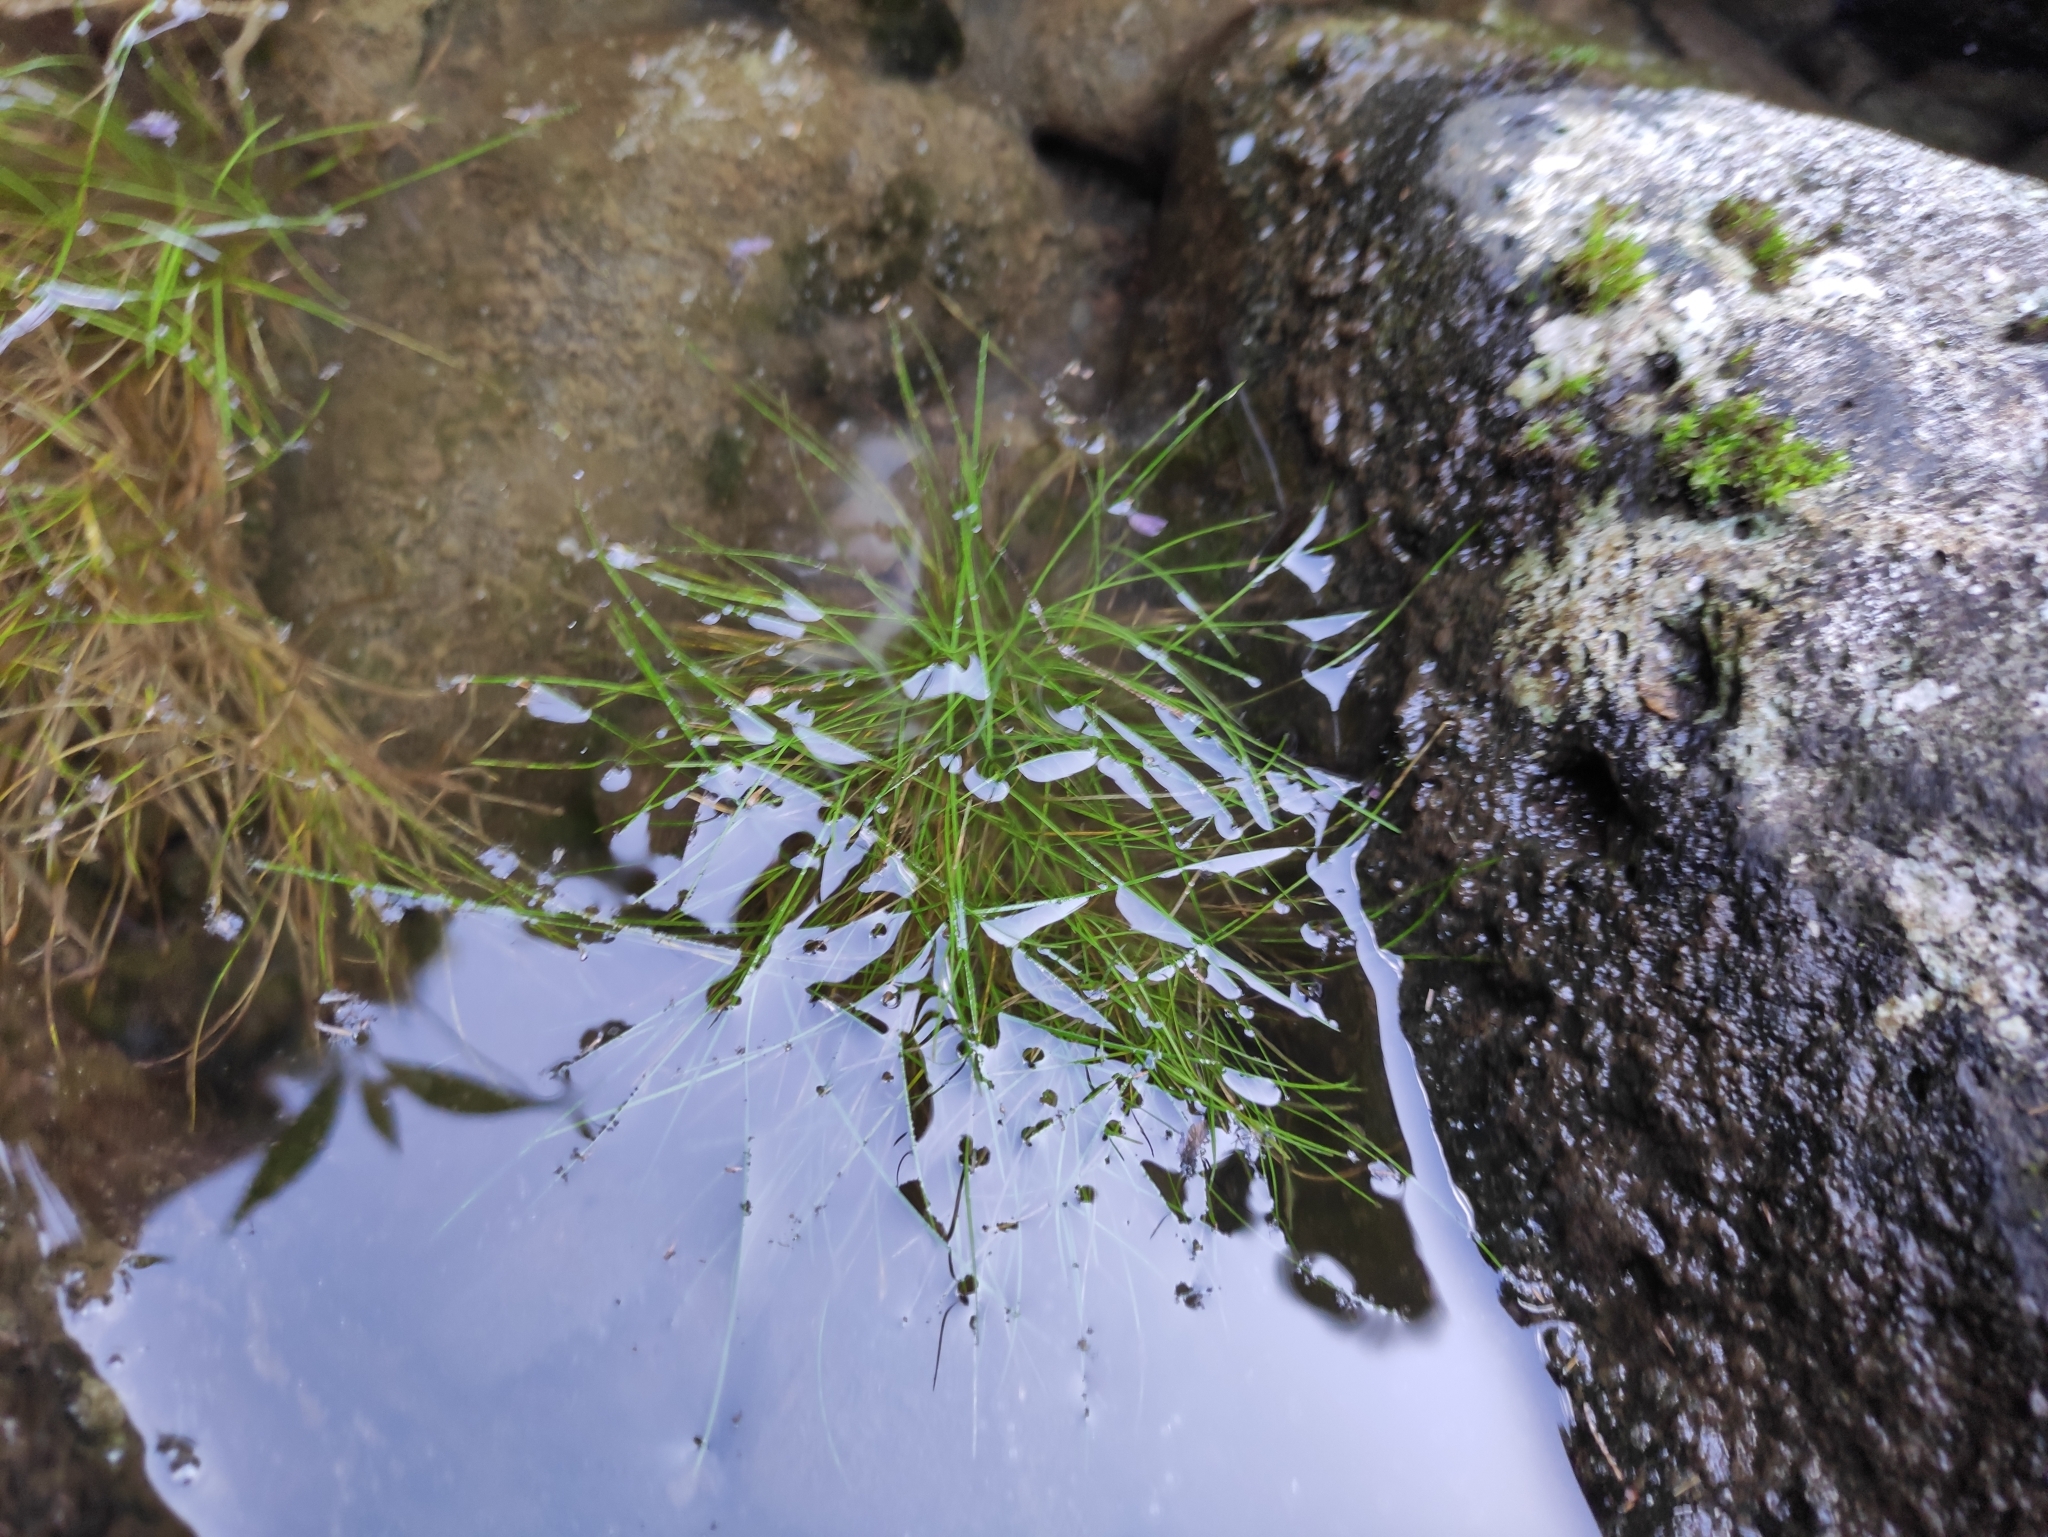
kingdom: Plantae
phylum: Tracheophyta
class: Liliopsida
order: Poales
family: Cyperaceae
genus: Isolepis
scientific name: Isolepis fluitans
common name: Floating club-rush
